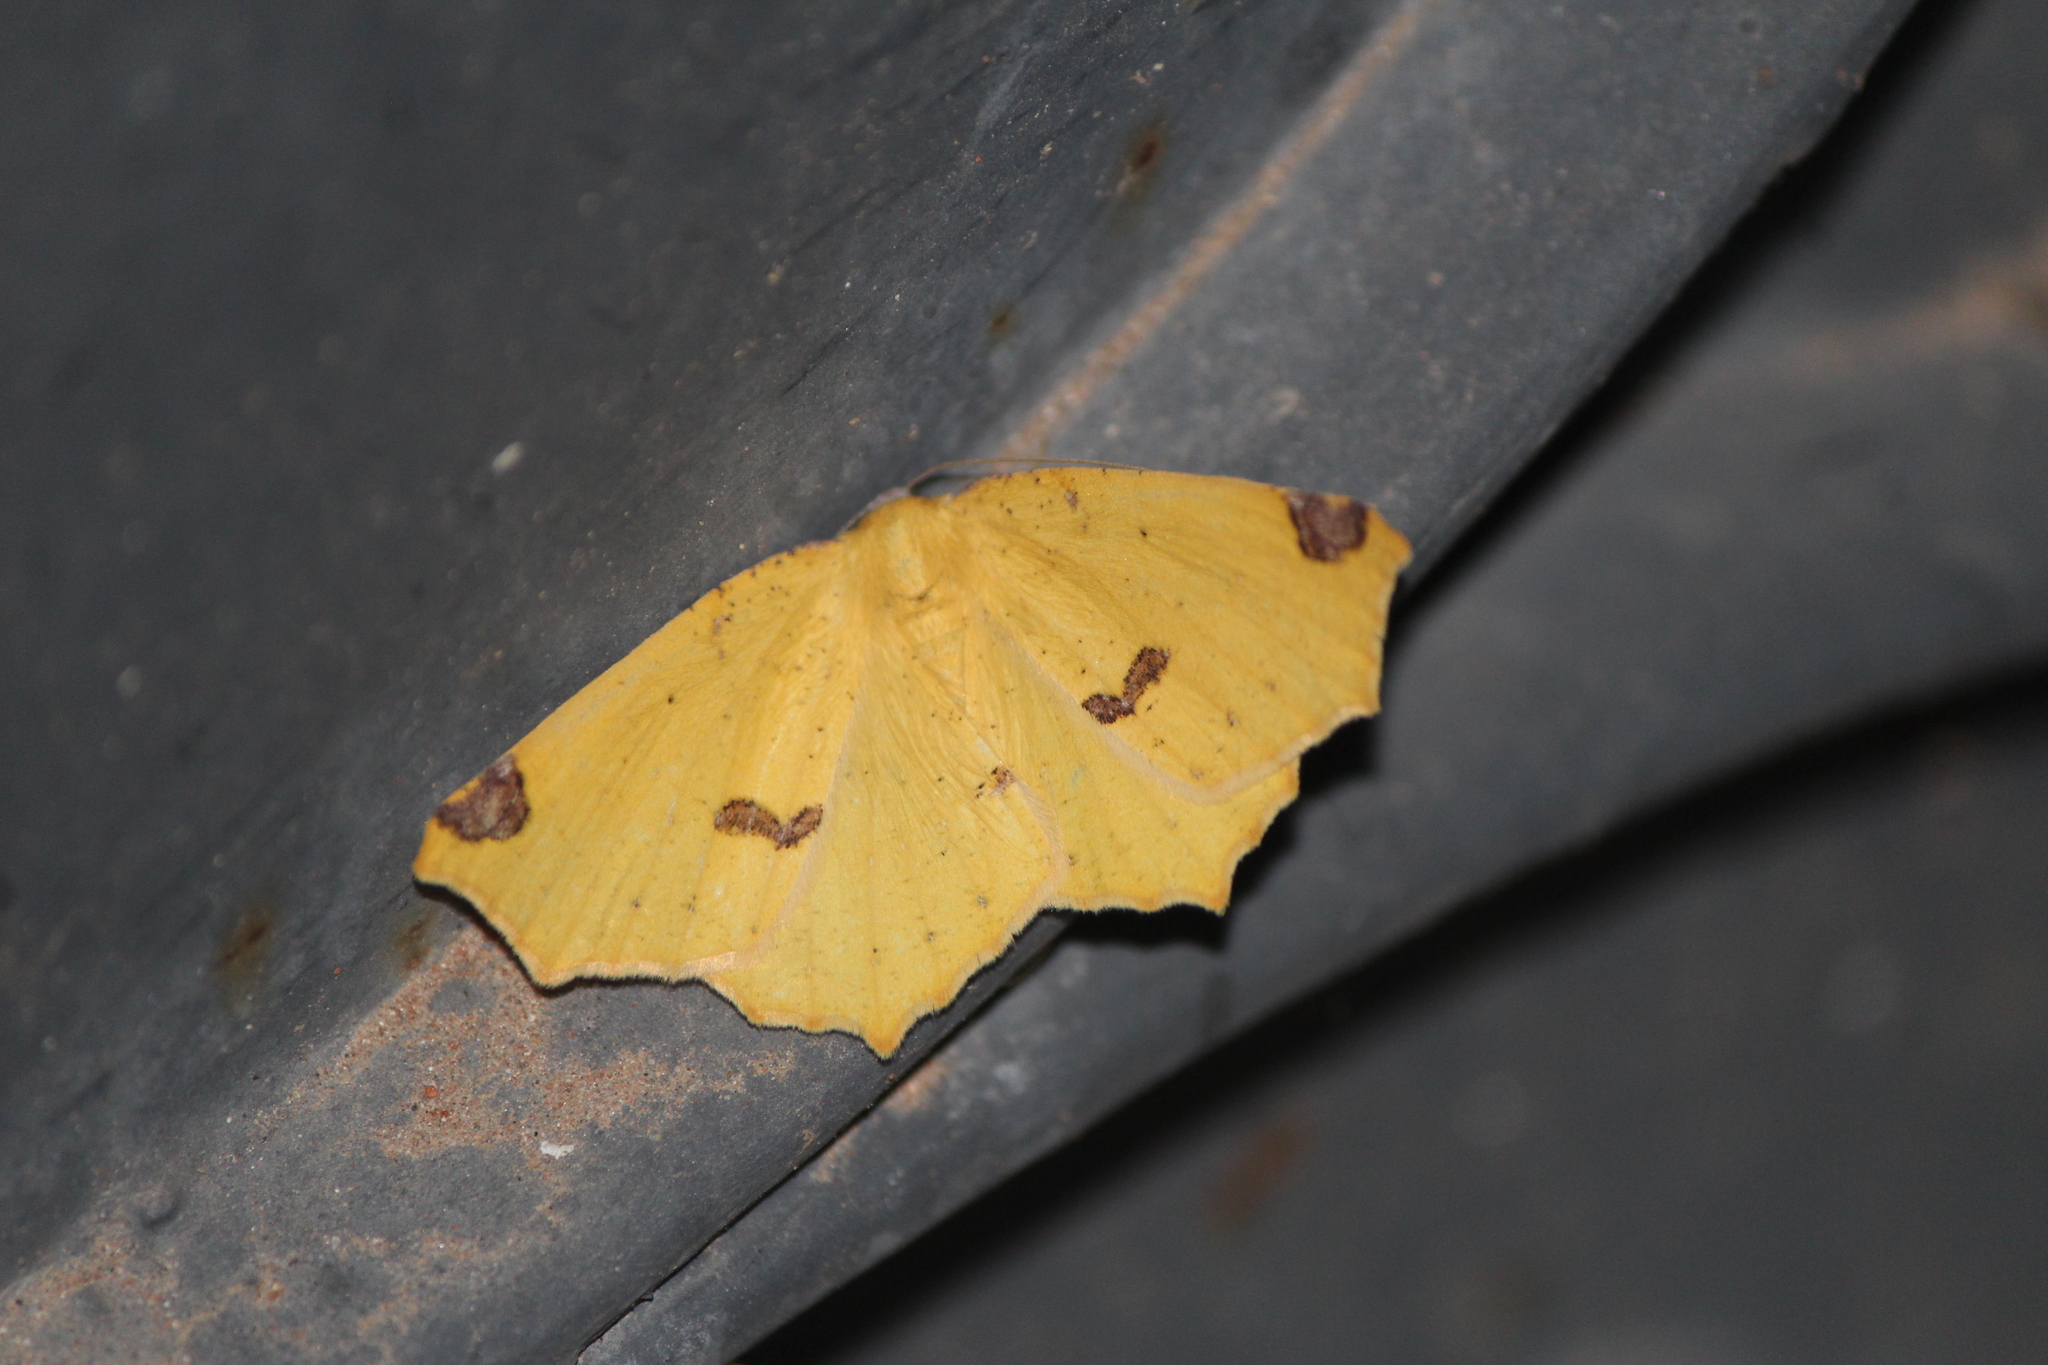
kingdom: Animalia
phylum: Arthropoda
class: Insecta
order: Lepidoptera
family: Geometridae
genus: Antepione
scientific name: Antepione thisoaria
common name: Variable antipione
